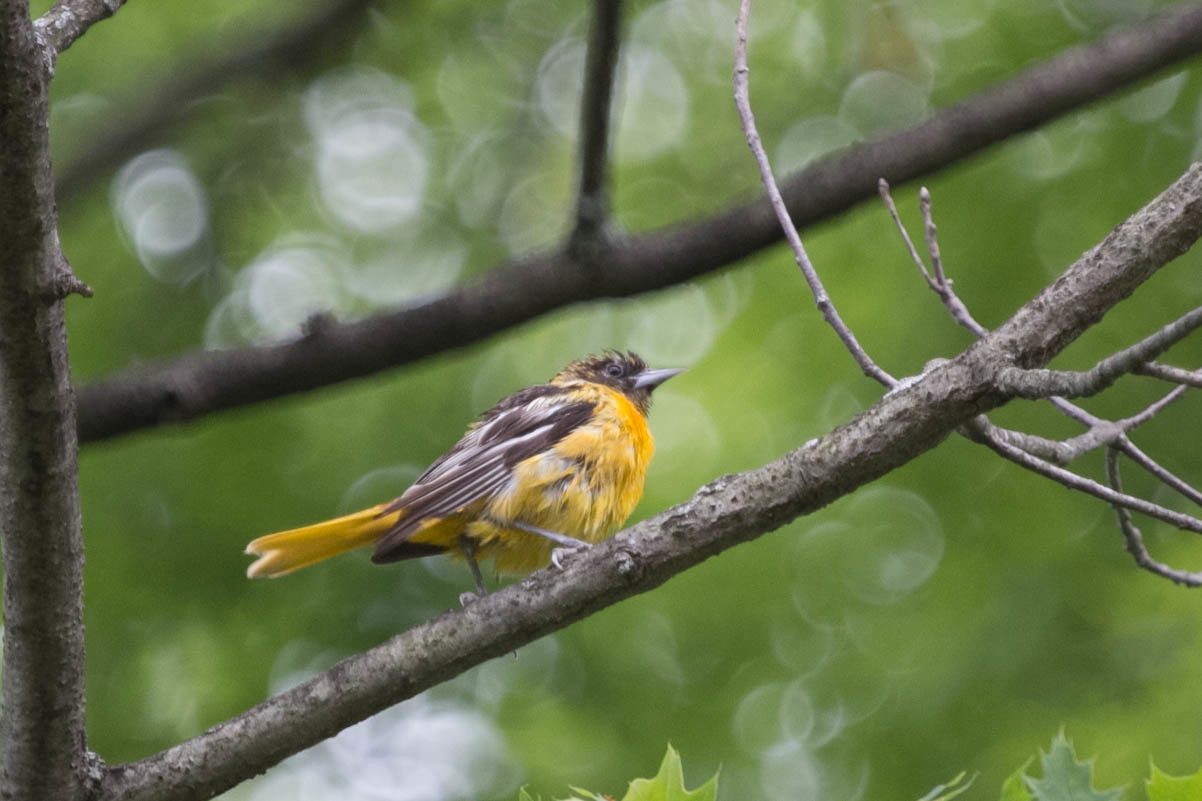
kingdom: Animalia
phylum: Chordata
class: Aves
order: Passeriformes
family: Icteridae
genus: Icterus
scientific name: Icterus galbula
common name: Baltimore oriole
